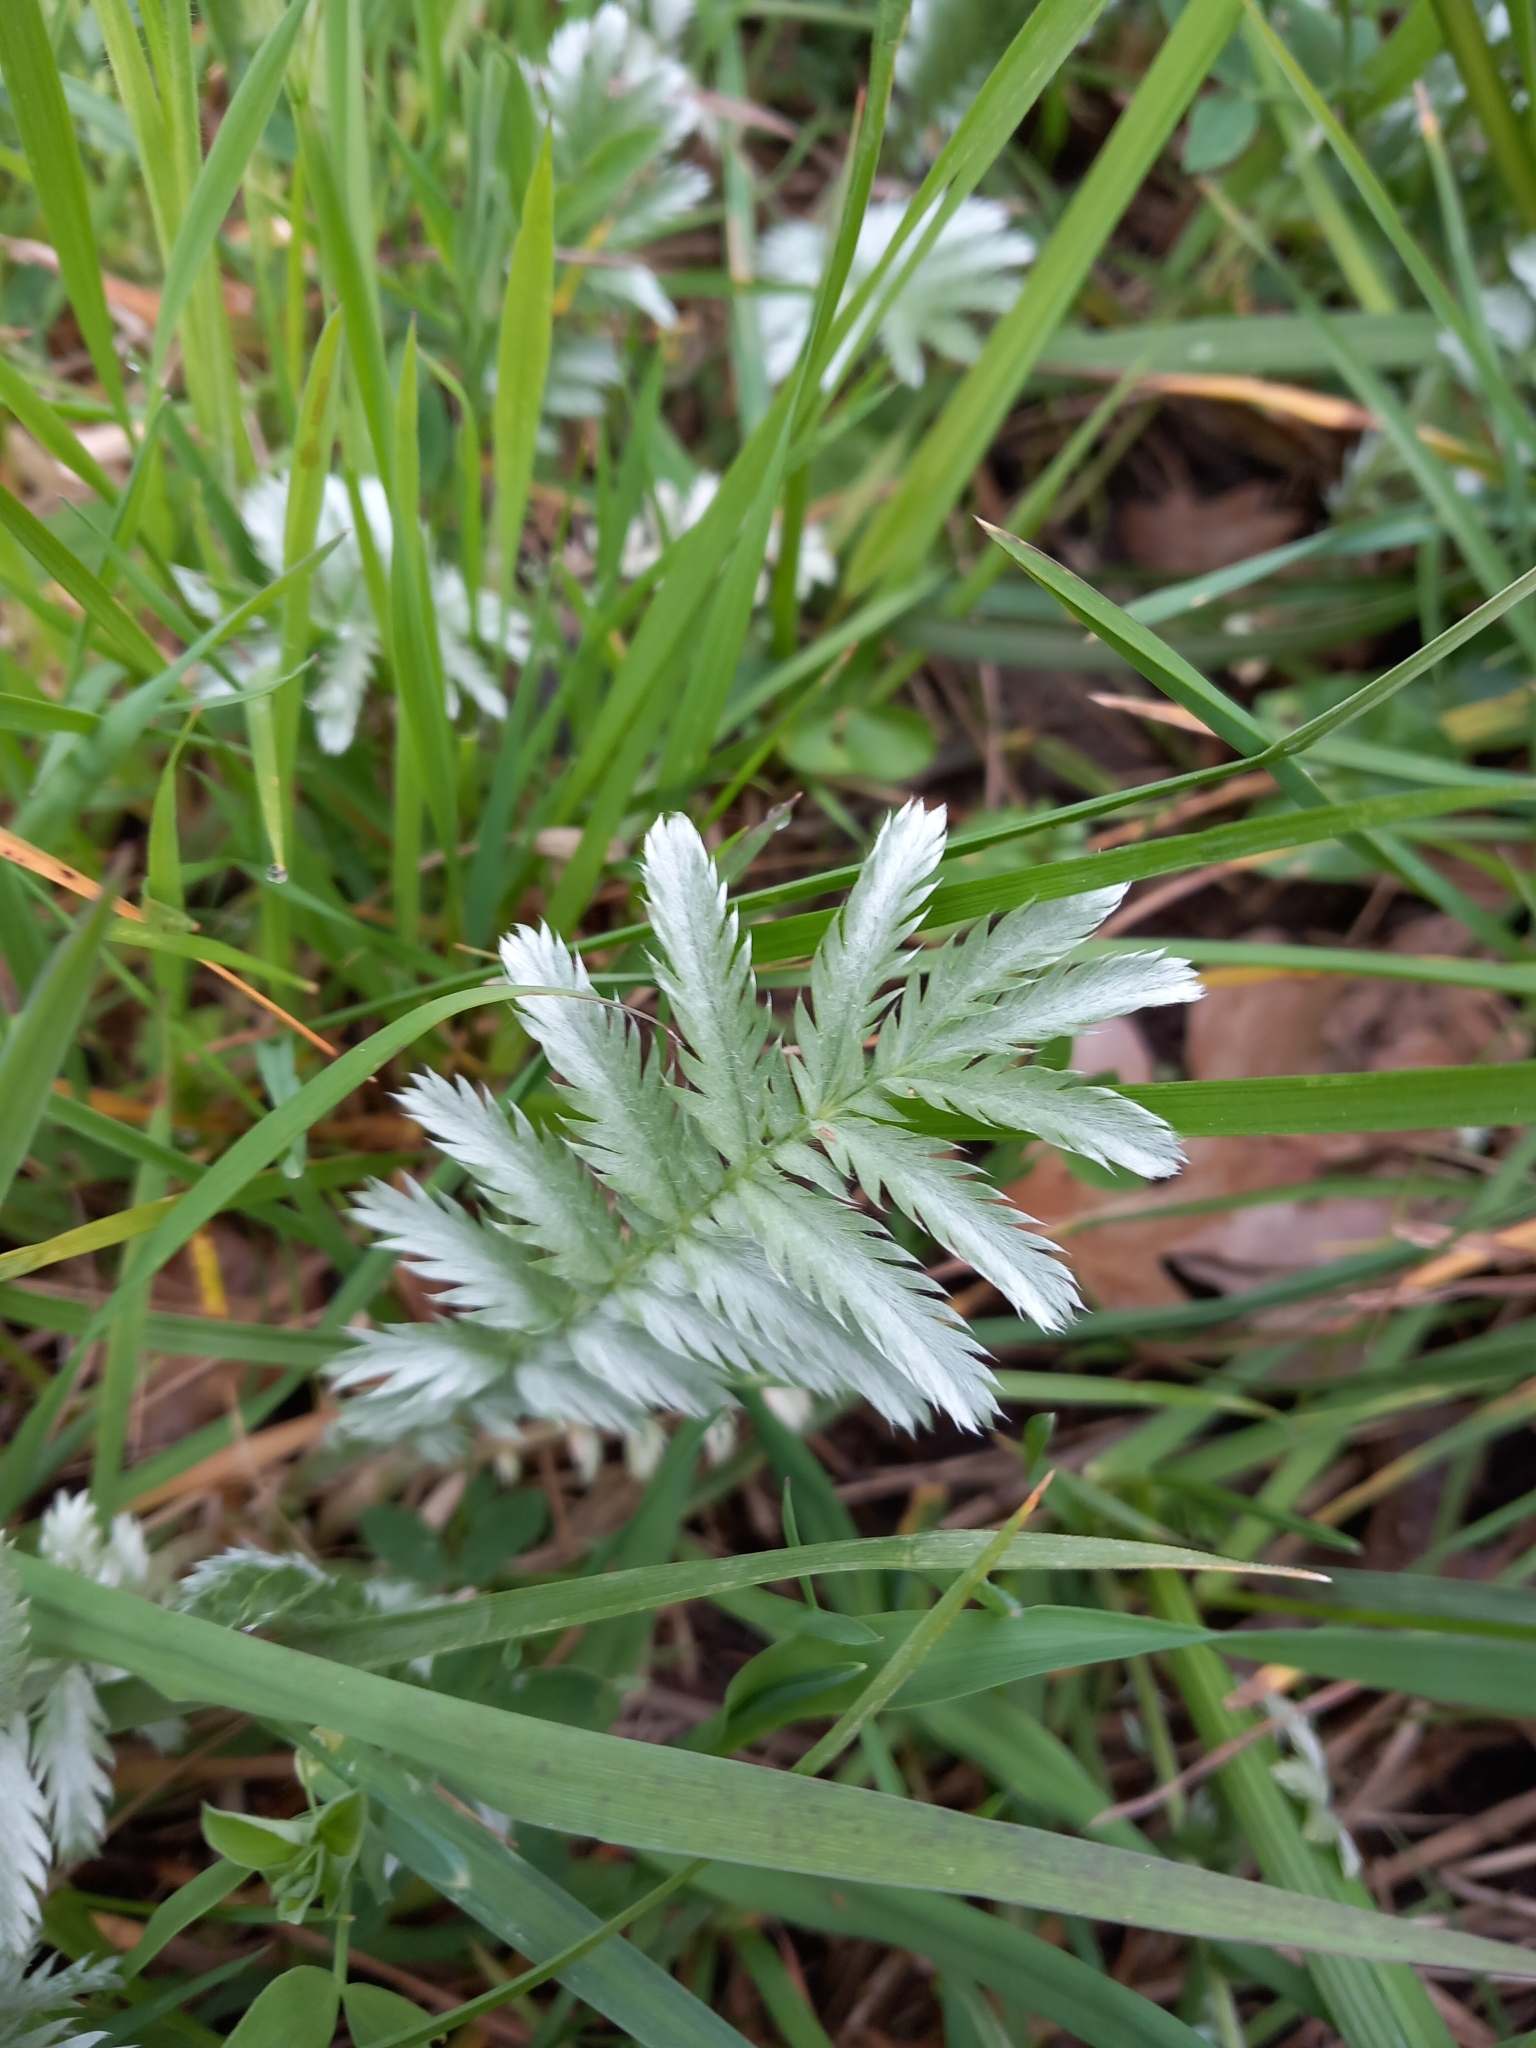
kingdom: Plantae
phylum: Tracheophyta
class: Magnoliopsida
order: Rosales
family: Rosaceae
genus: Argentina
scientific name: Argentina anserina
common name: Common silverweed
